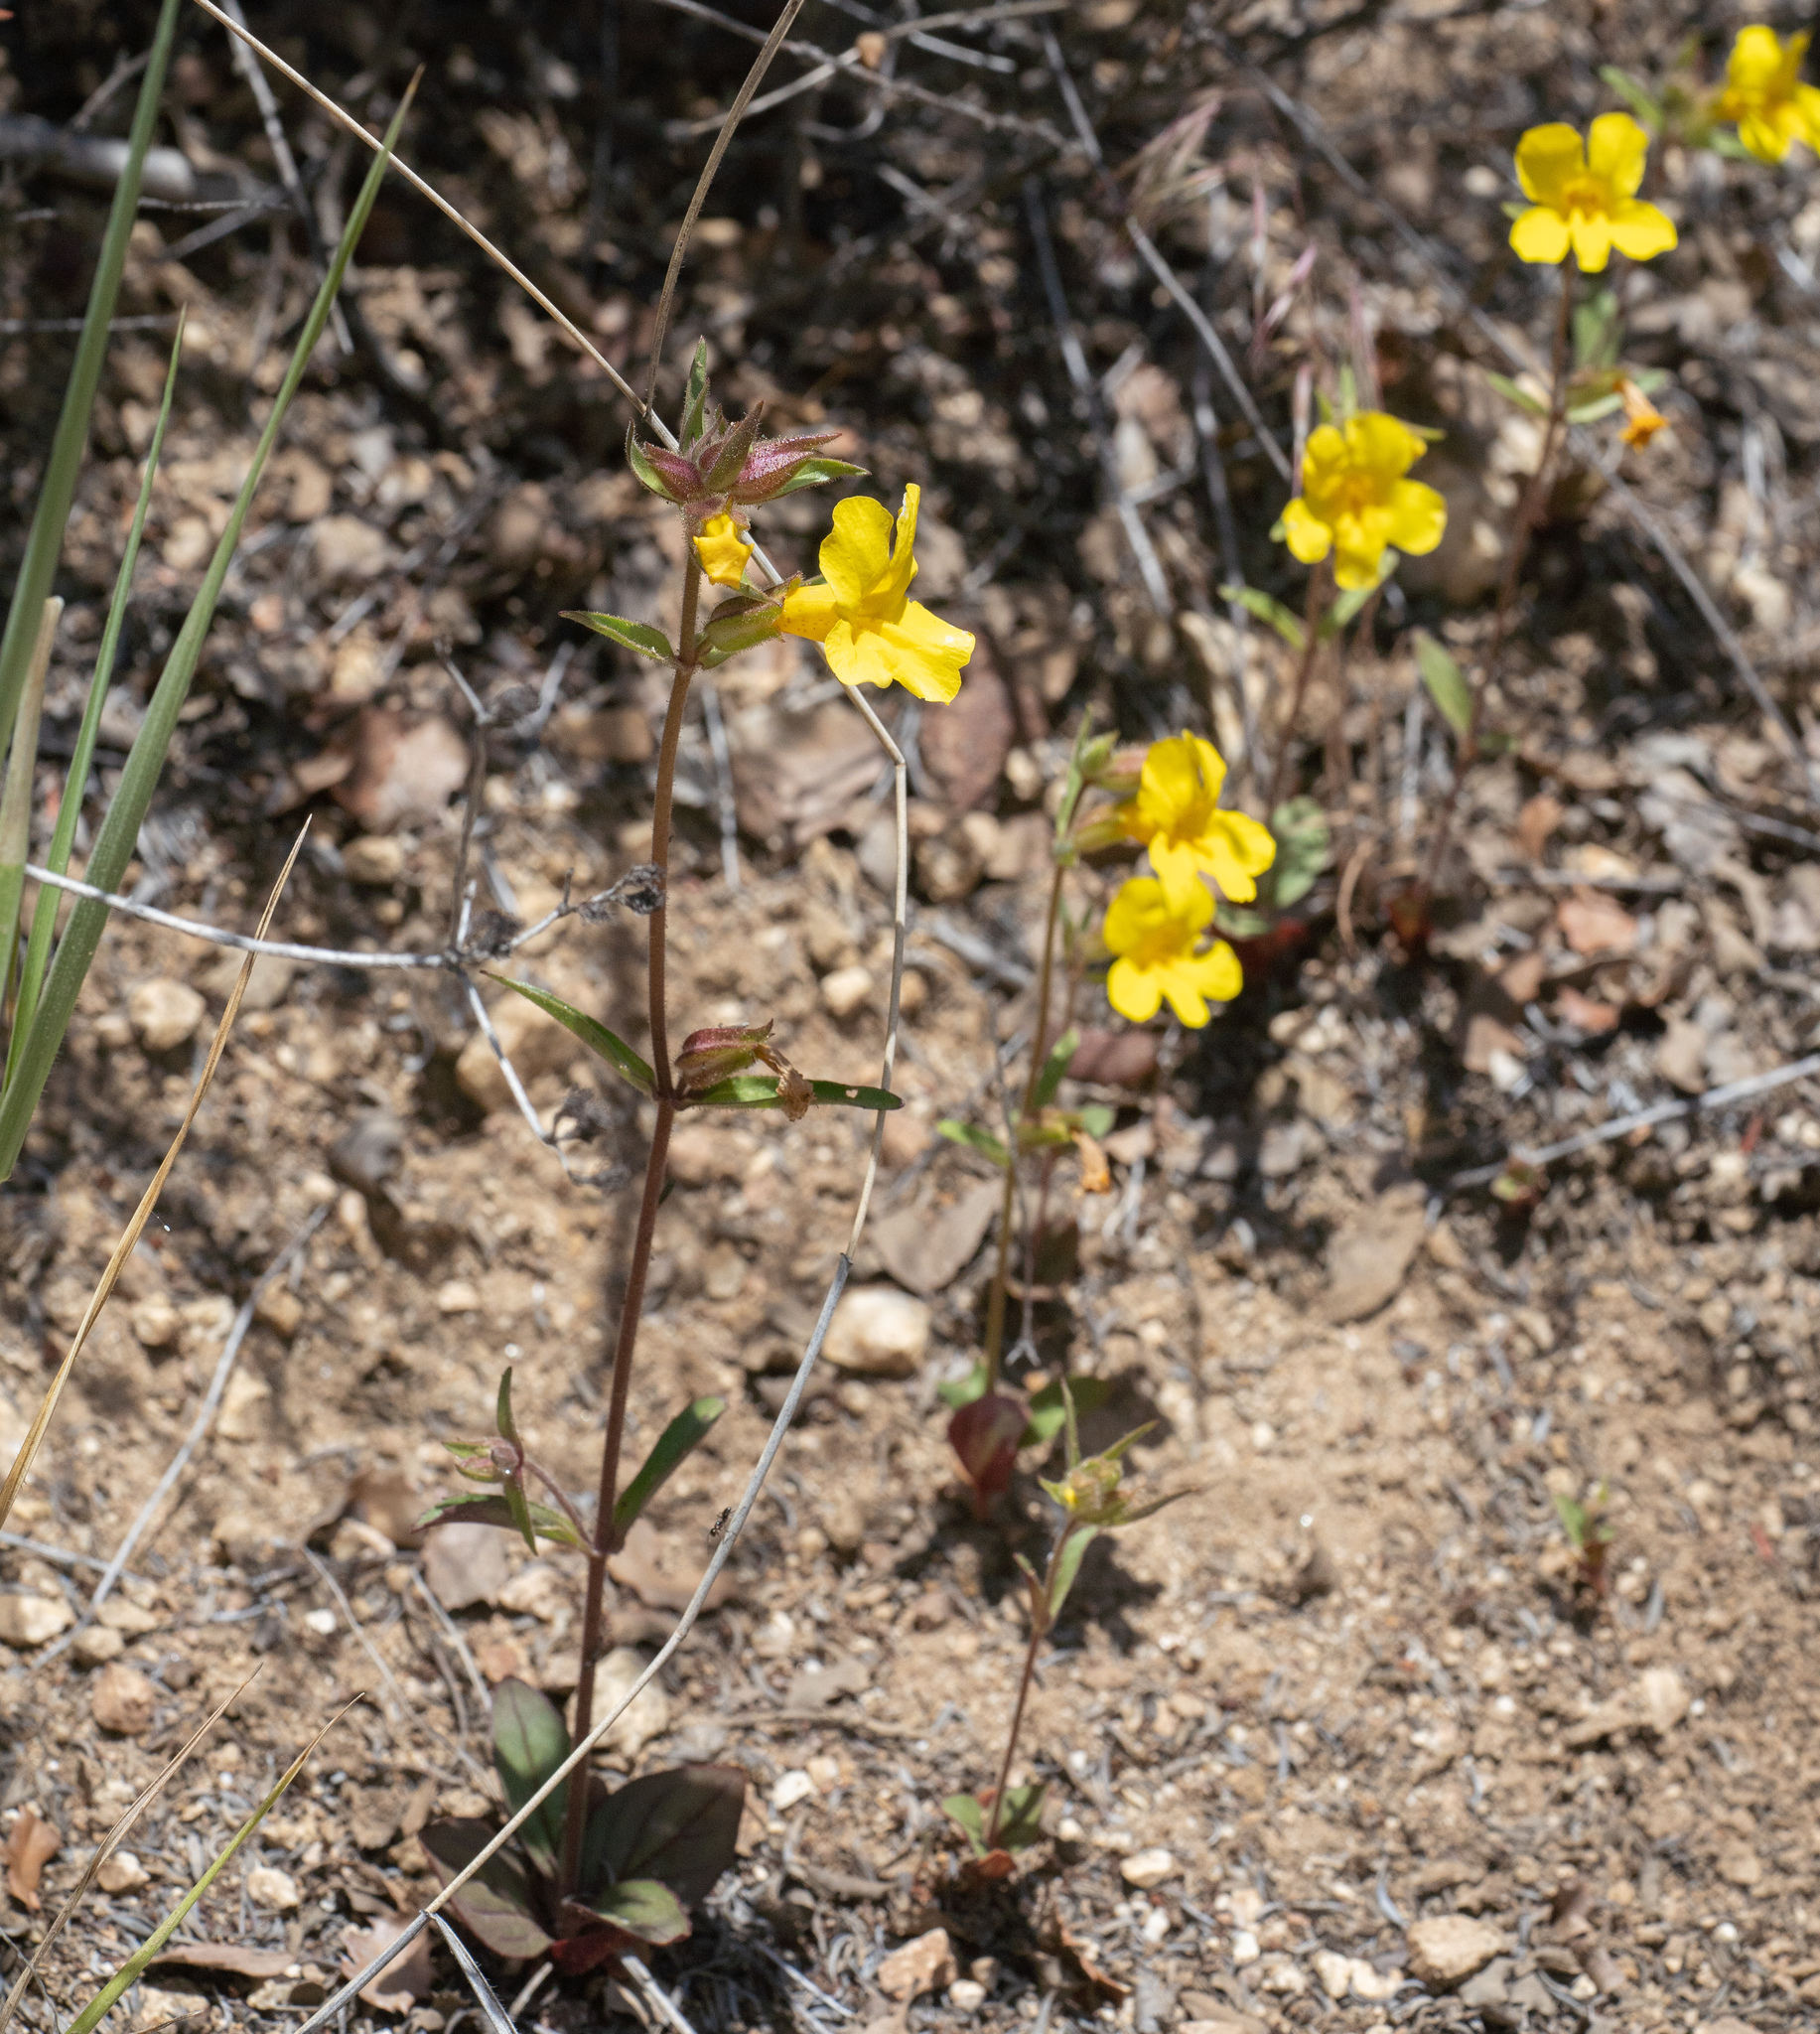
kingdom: Plantae
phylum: Tracheophyta
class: Magnoliopsida
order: Lamiales
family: Phrymaceae
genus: Diplacus
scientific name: Diplacus brevipes
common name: Wide-throat yellow monkey-flower
